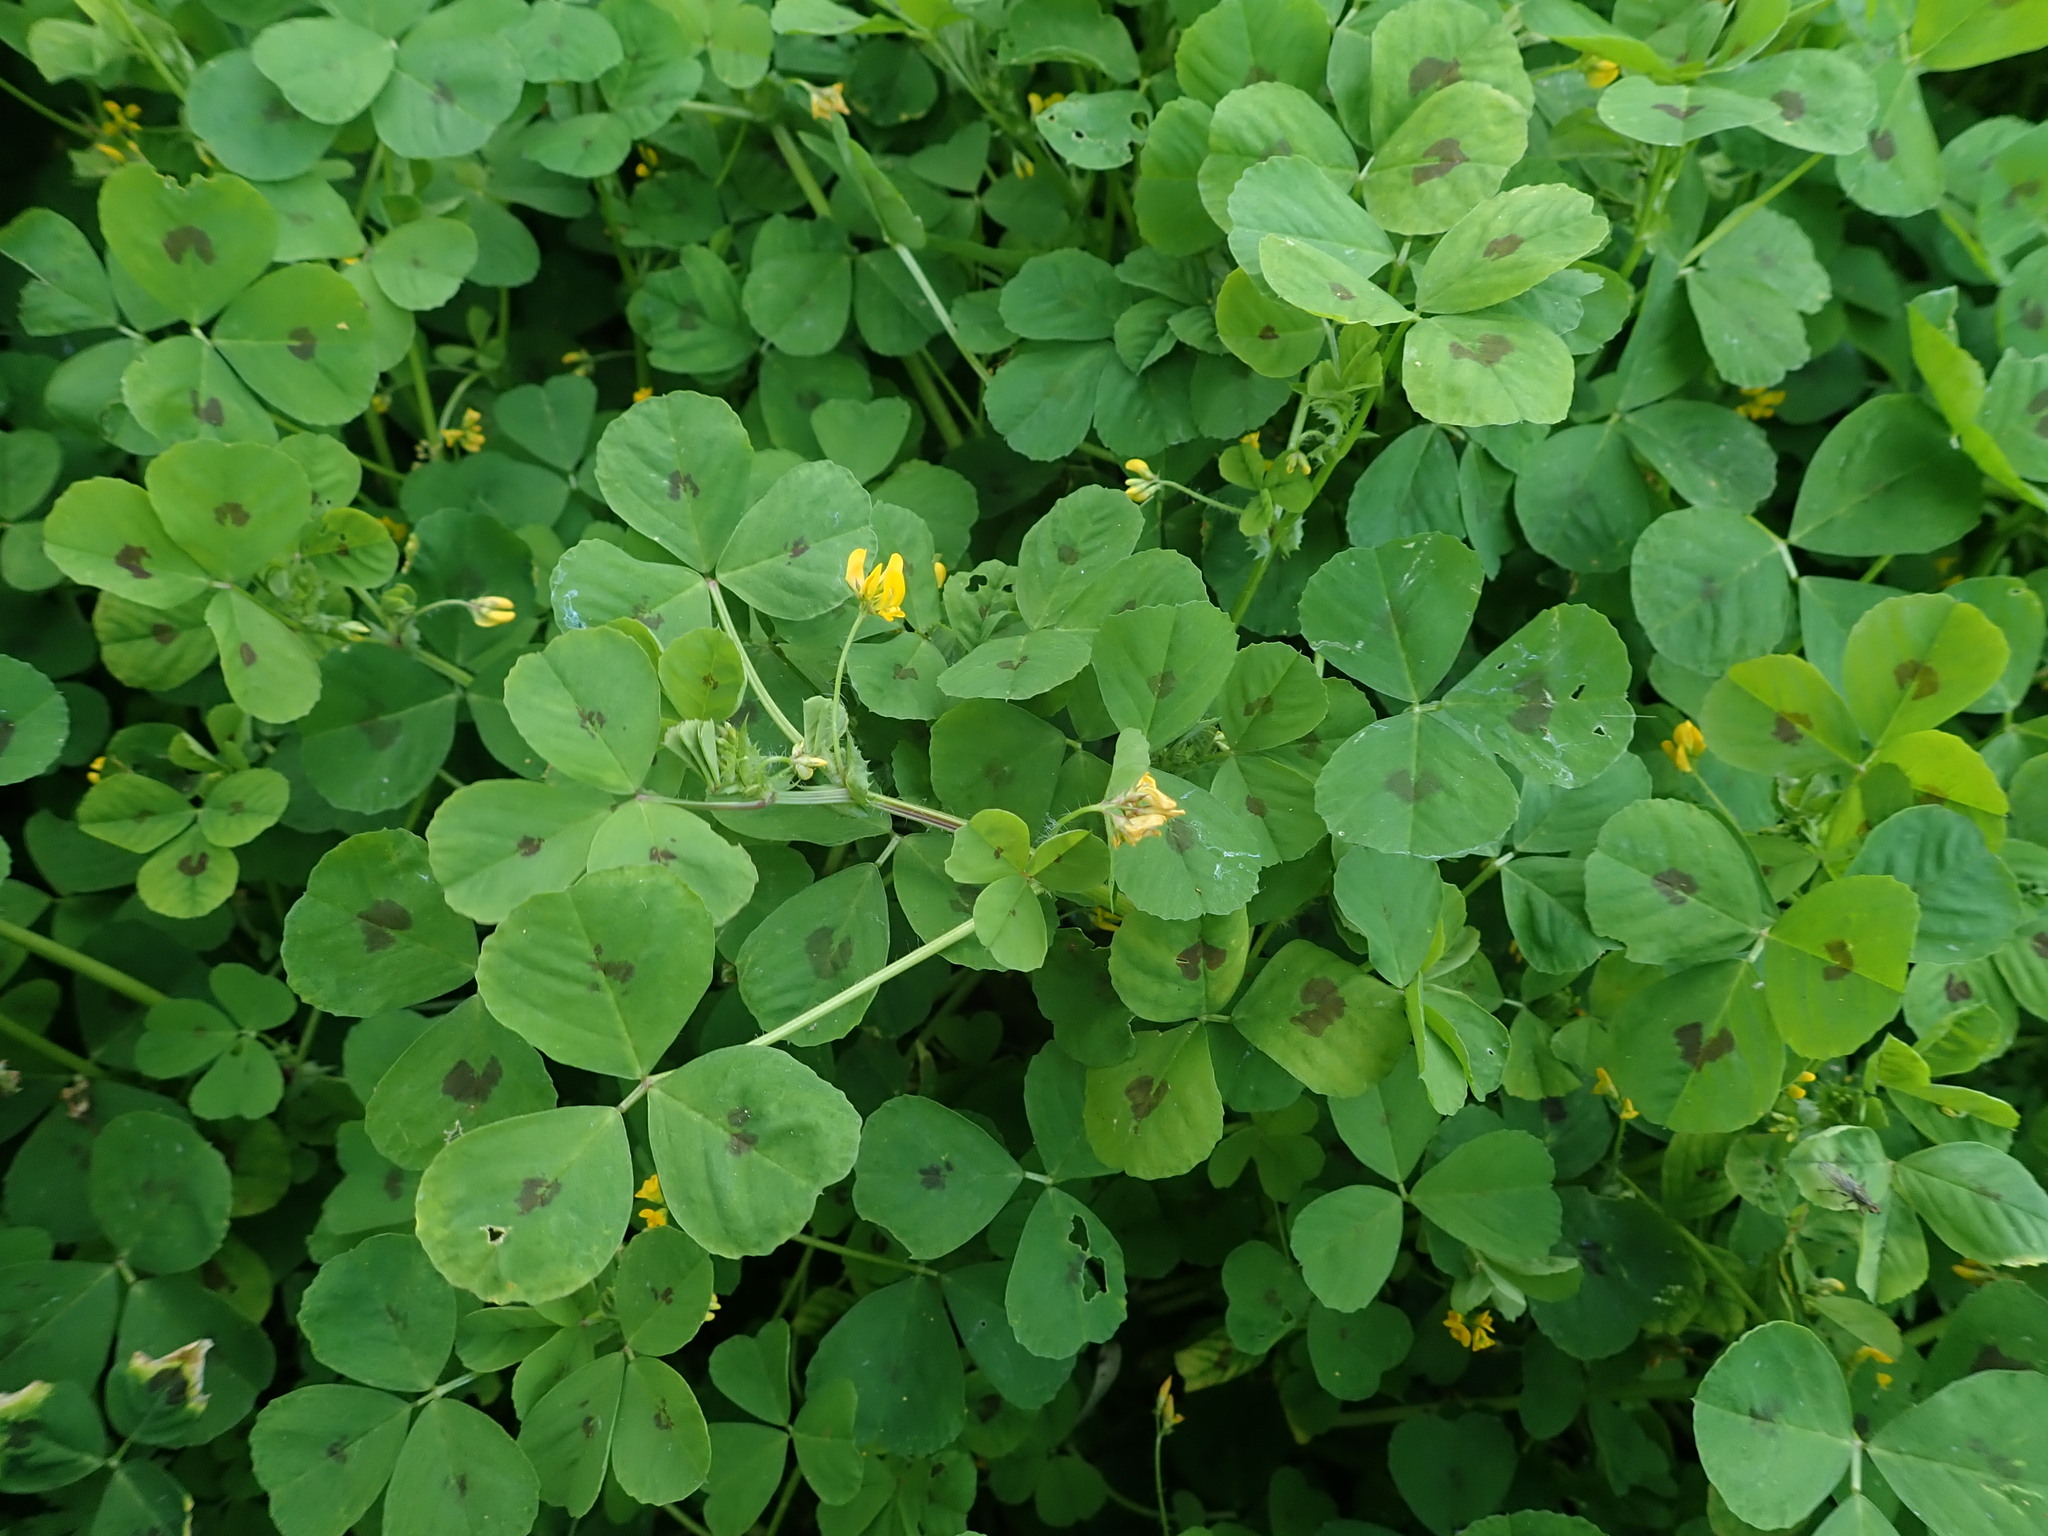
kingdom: Plantae
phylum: Tracheophyta
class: Magnoliopsida
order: Fabales
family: Fabaceae
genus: Medicago
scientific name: Medicago arabica
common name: Spotted medick
